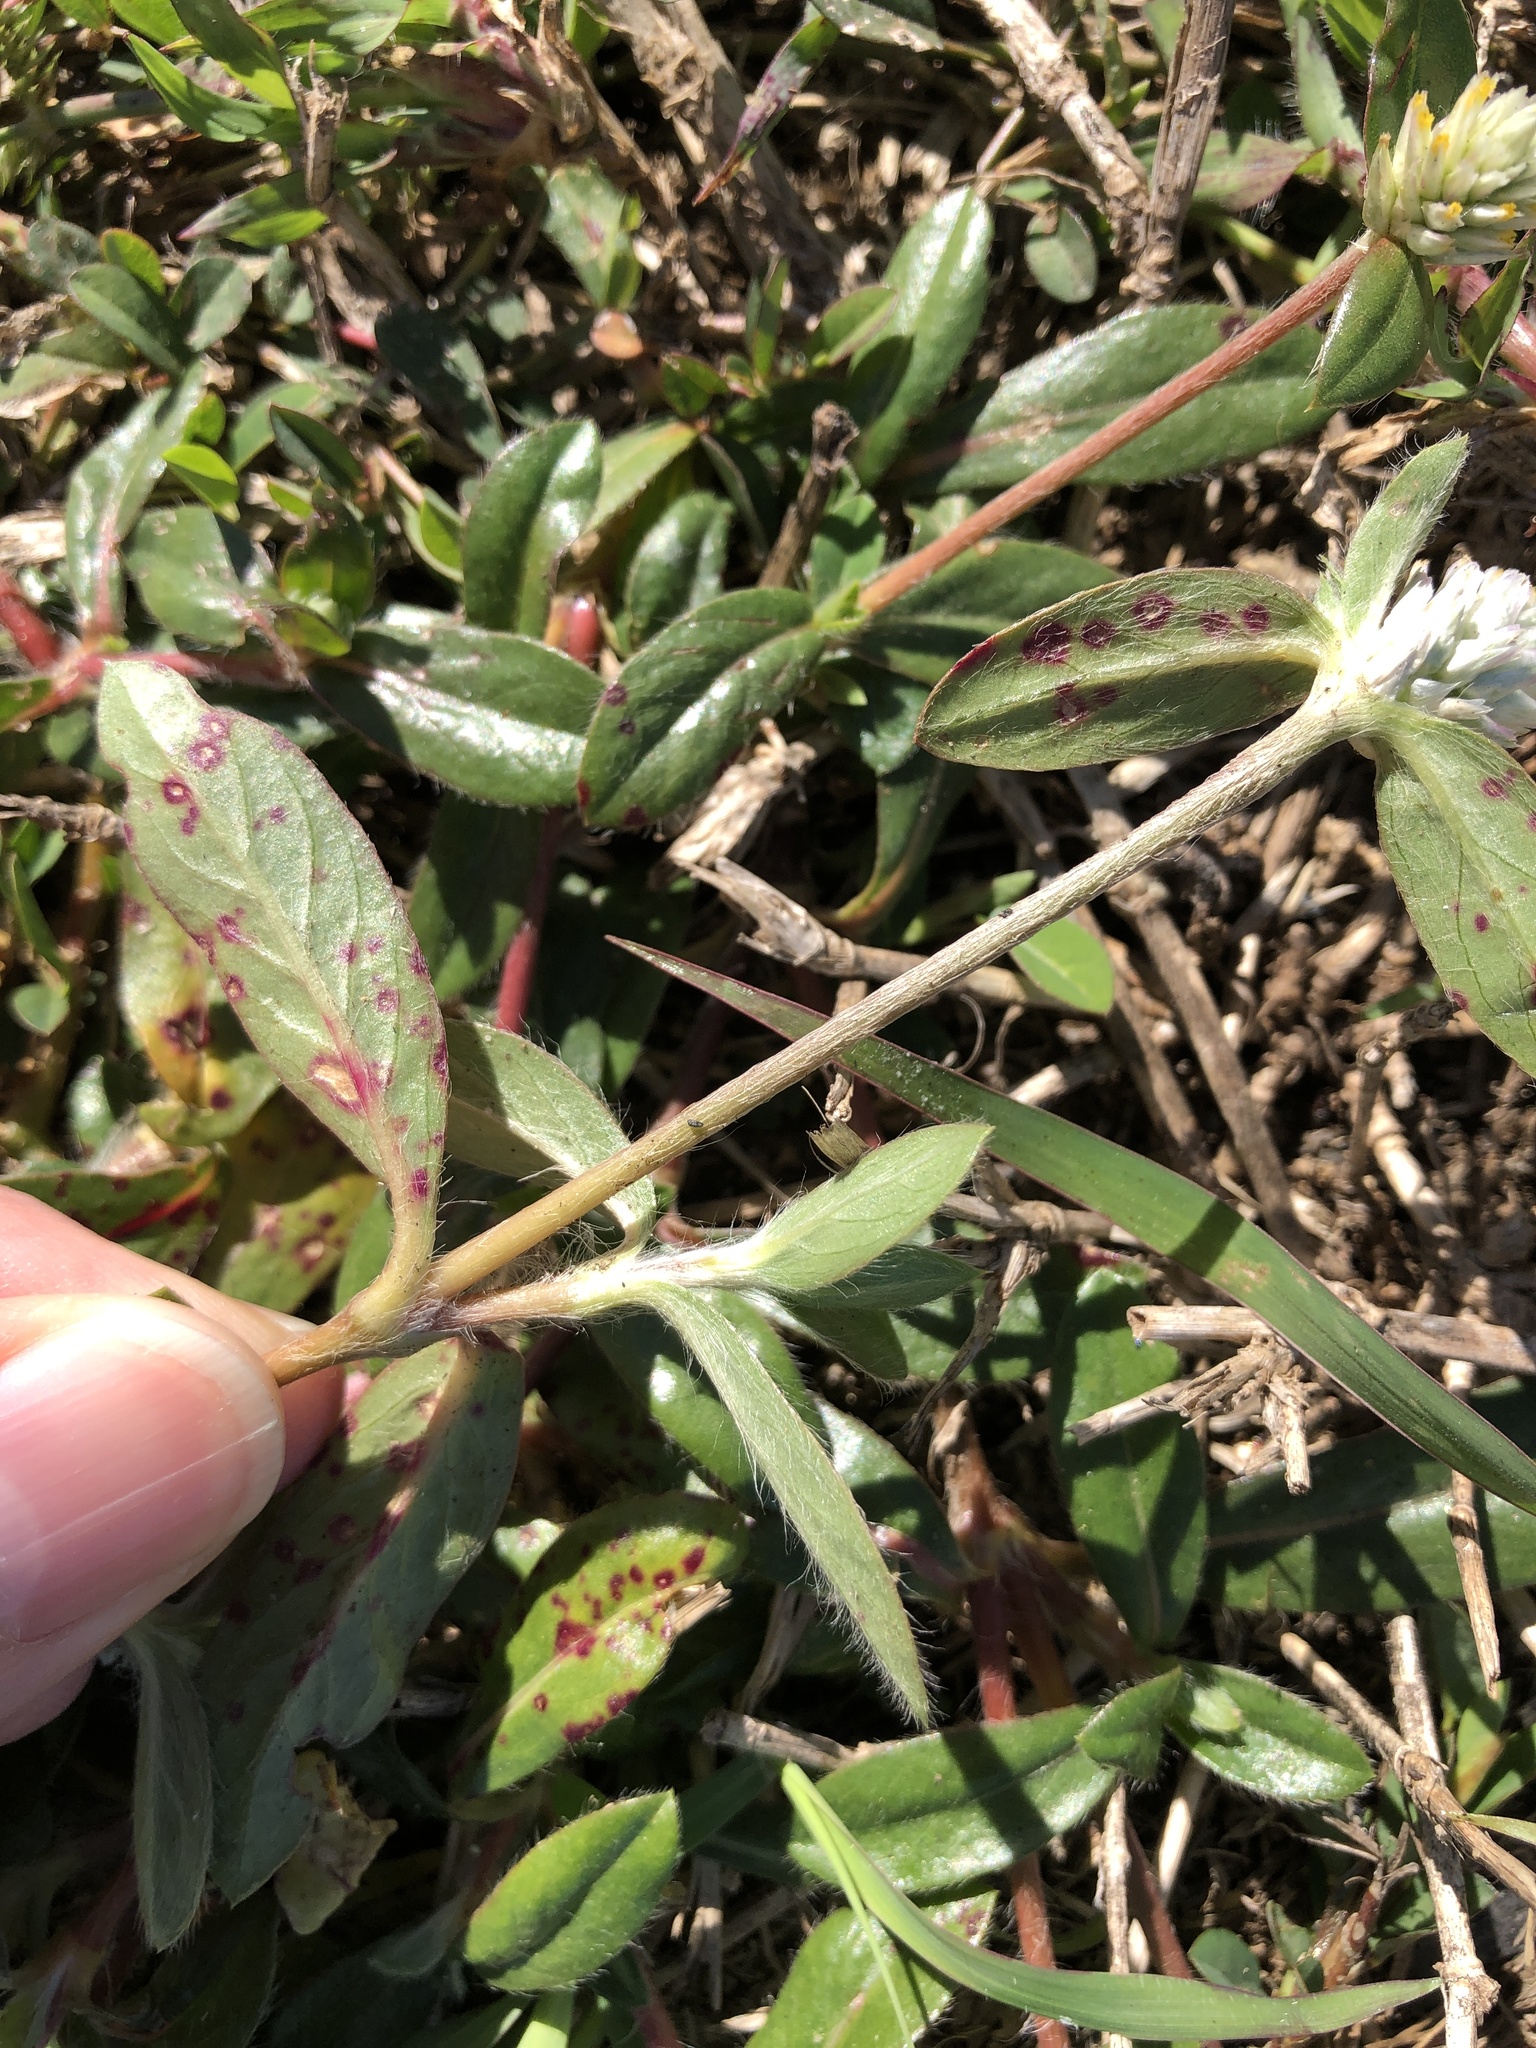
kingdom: Plantae
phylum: Tracheophyta
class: Magnoliopsida
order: Caryophyllales
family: Amaranthaceae
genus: Gomphrena
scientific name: Gomphrena celosioides
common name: Gomphrena-weed
